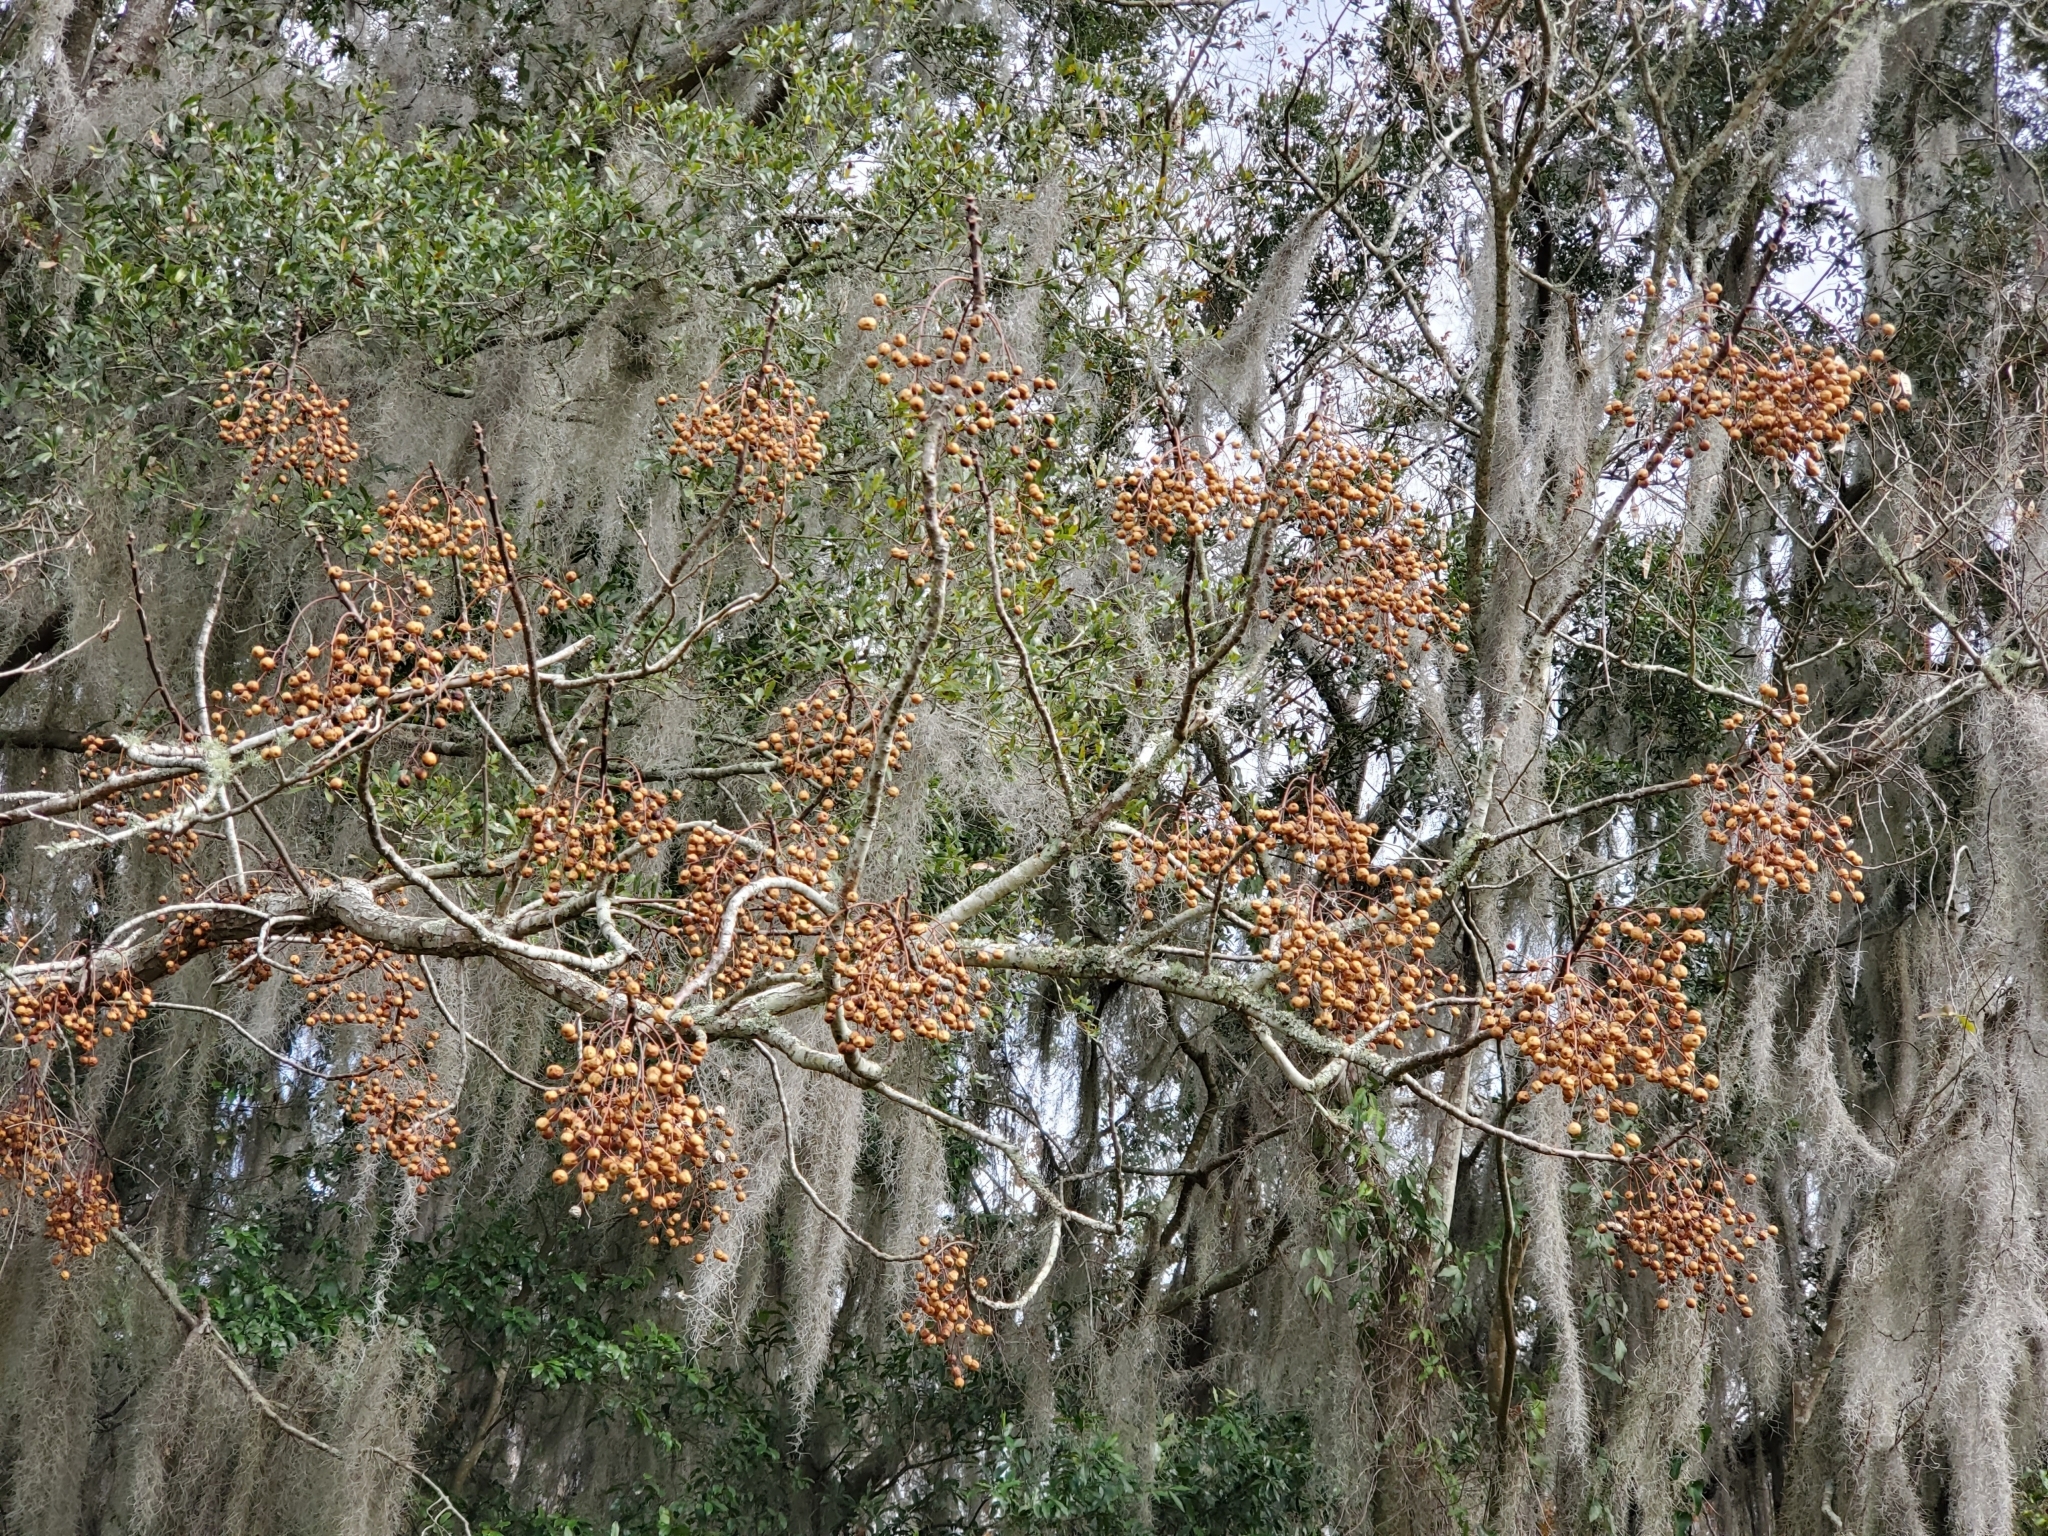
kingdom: Plantae
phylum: Tracheophyta
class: Magnoliopsida
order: Sapindales
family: Meliaceae
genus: Melia
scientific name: Melia azedarach
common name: Chinaberrytree
